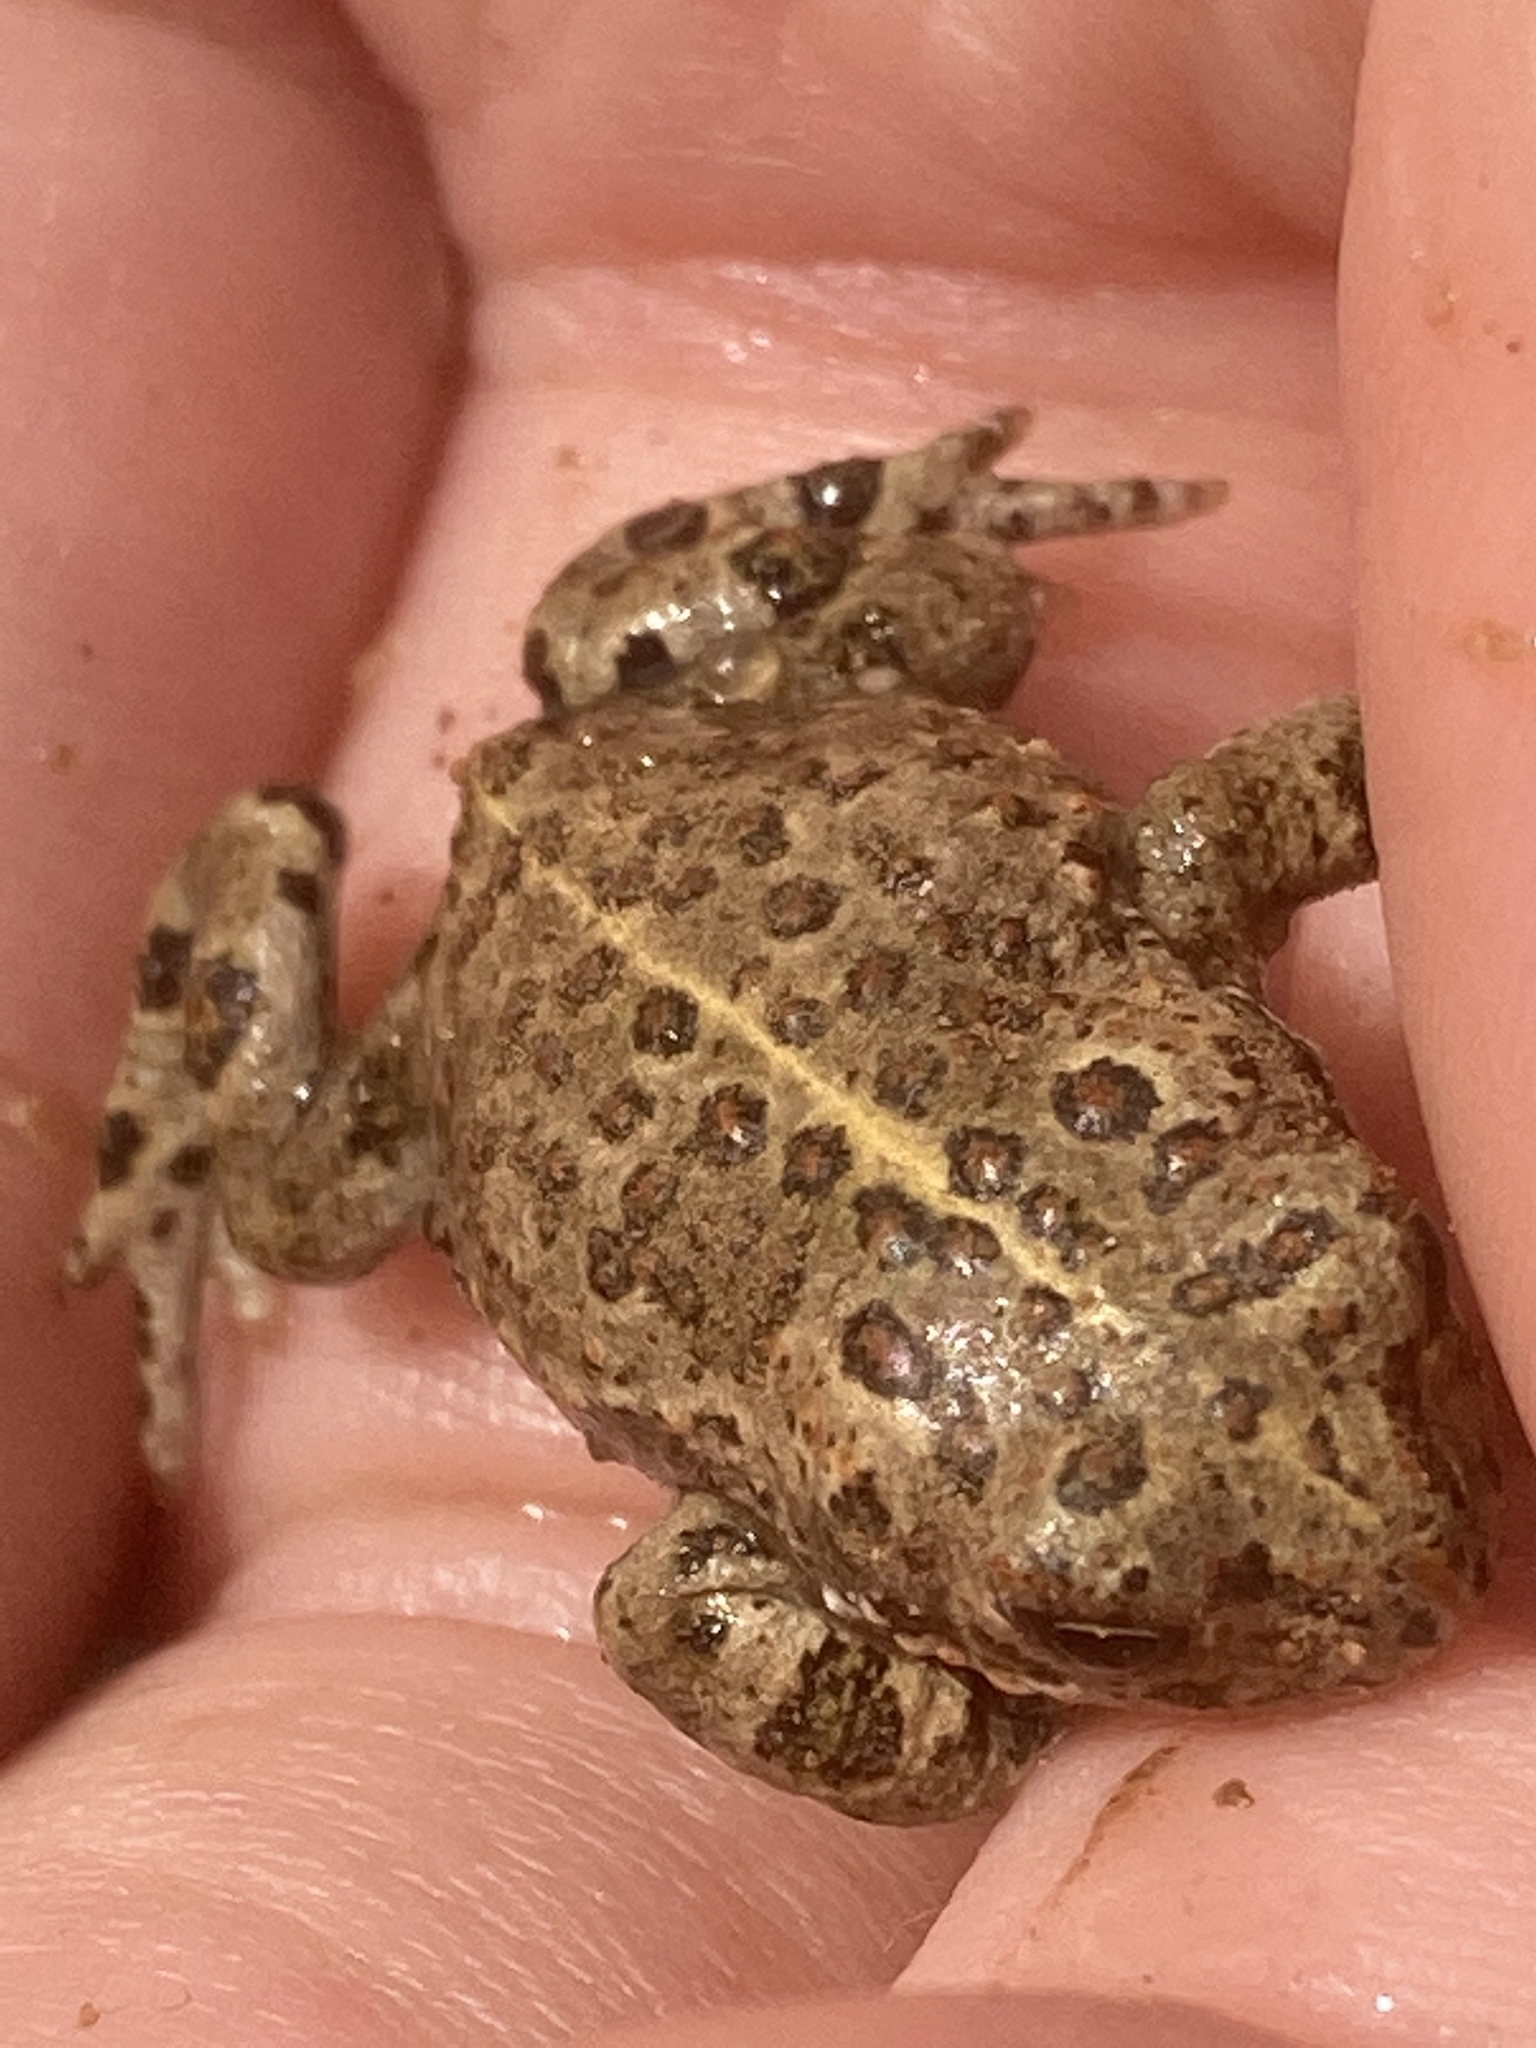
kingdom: Animalia
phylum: Chordata
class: Amphibia
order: Anura
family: Bufonidae
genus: Epidalea
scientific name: Epidalea calamita
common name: Natterjack toad
